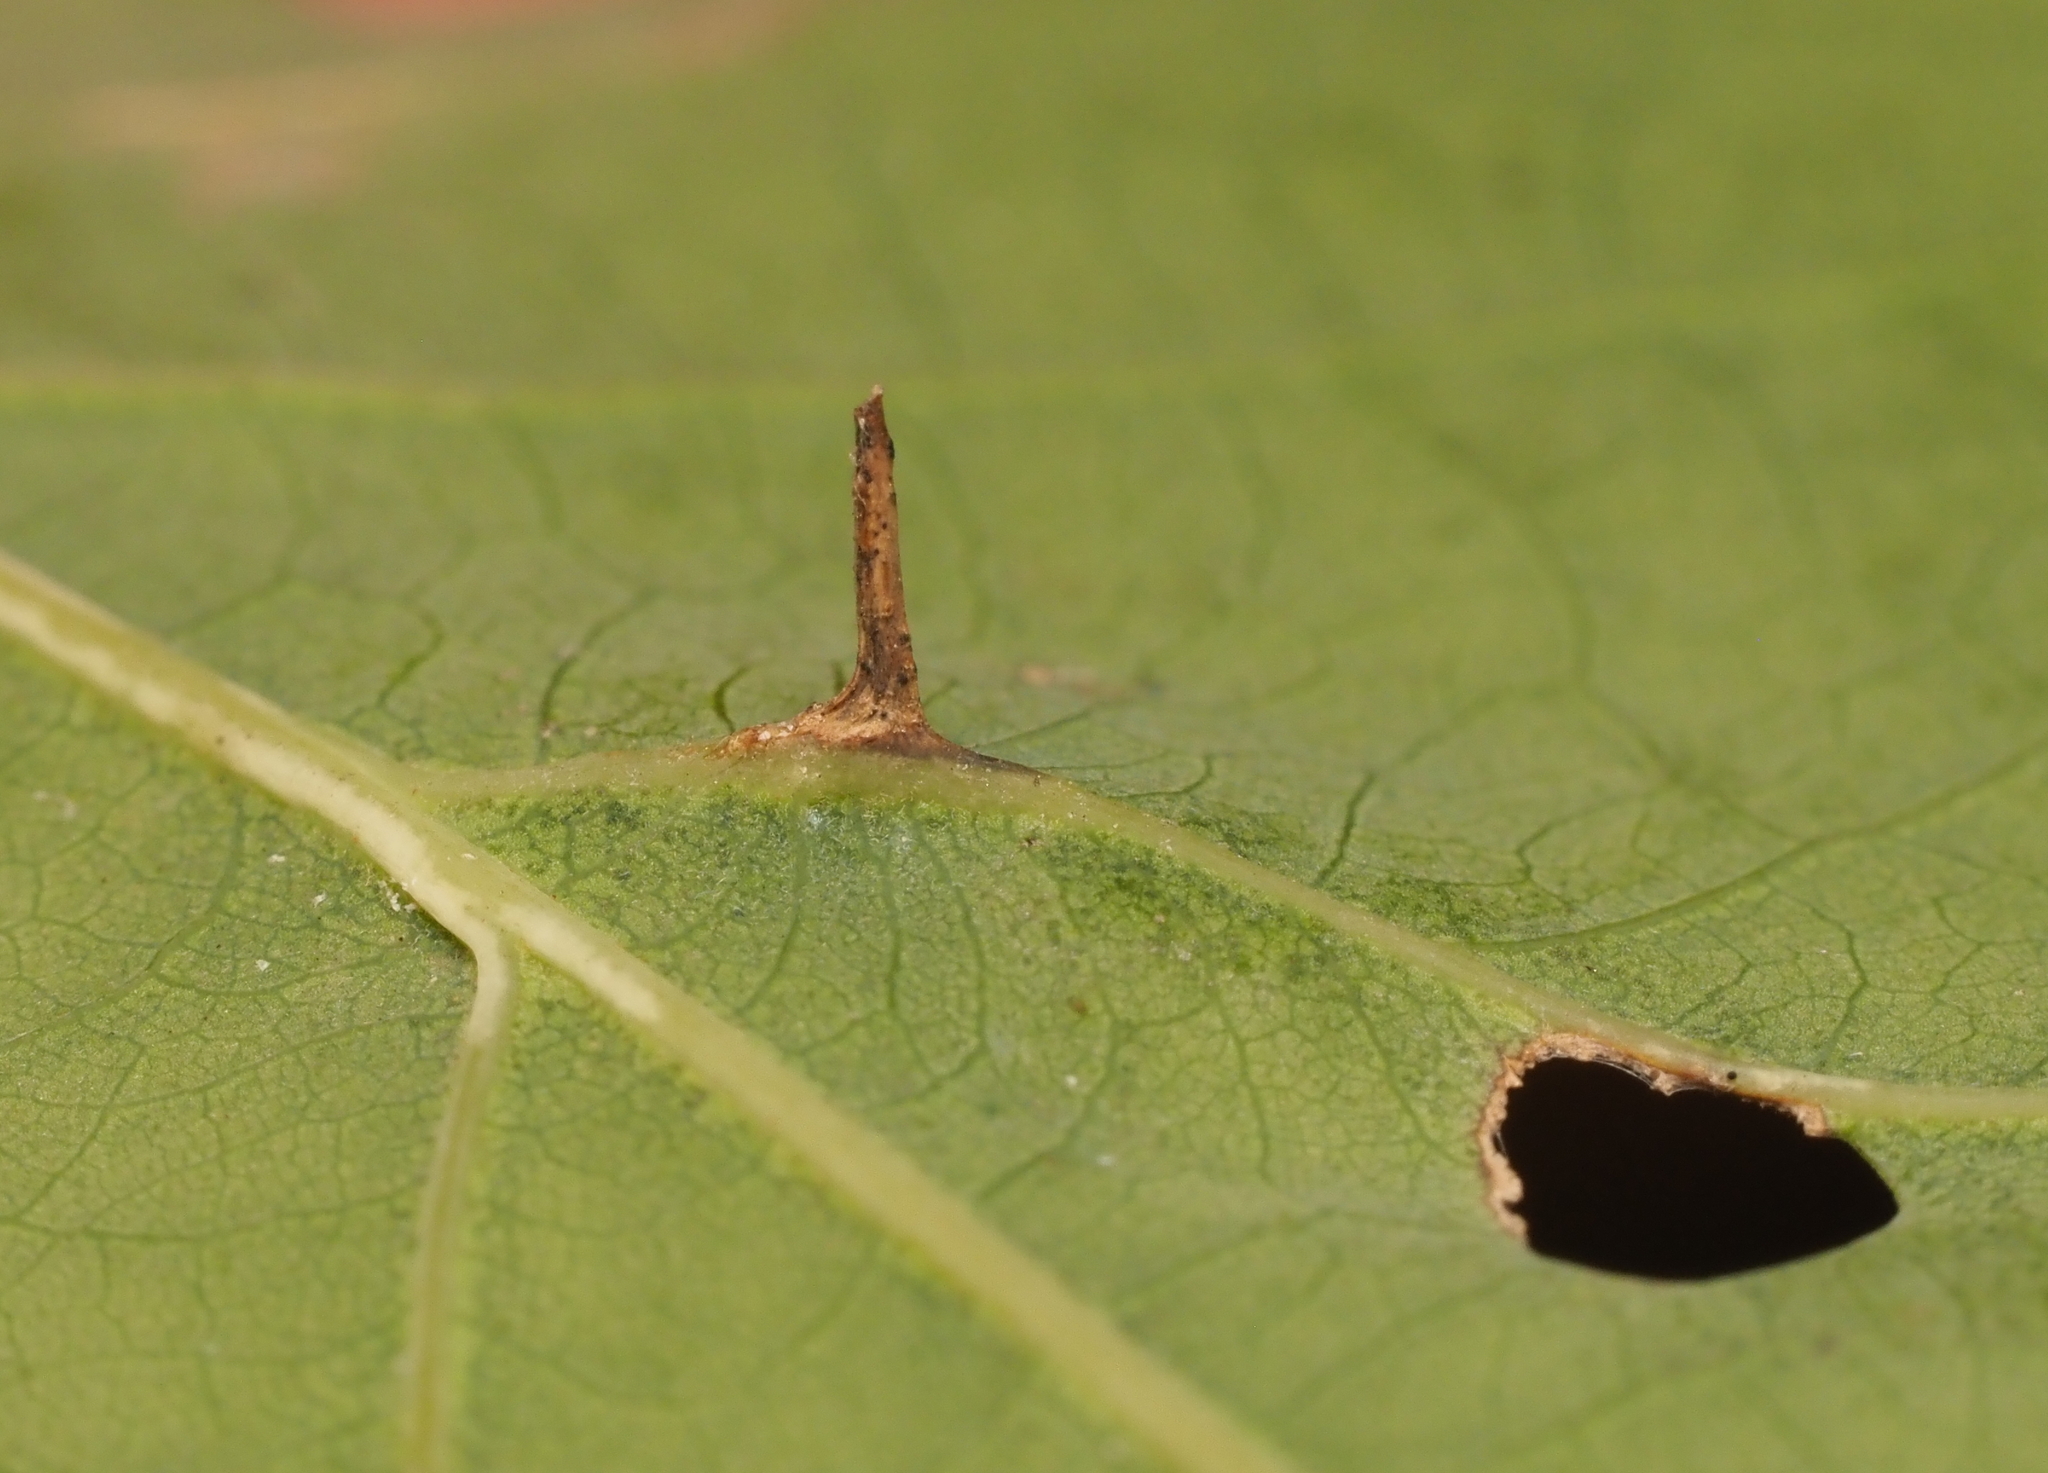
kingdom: Animalia
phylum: Arthropoda
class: Insecta
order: Hymenoptera
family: Cynipidae
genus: Andricus
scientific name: Andricus
